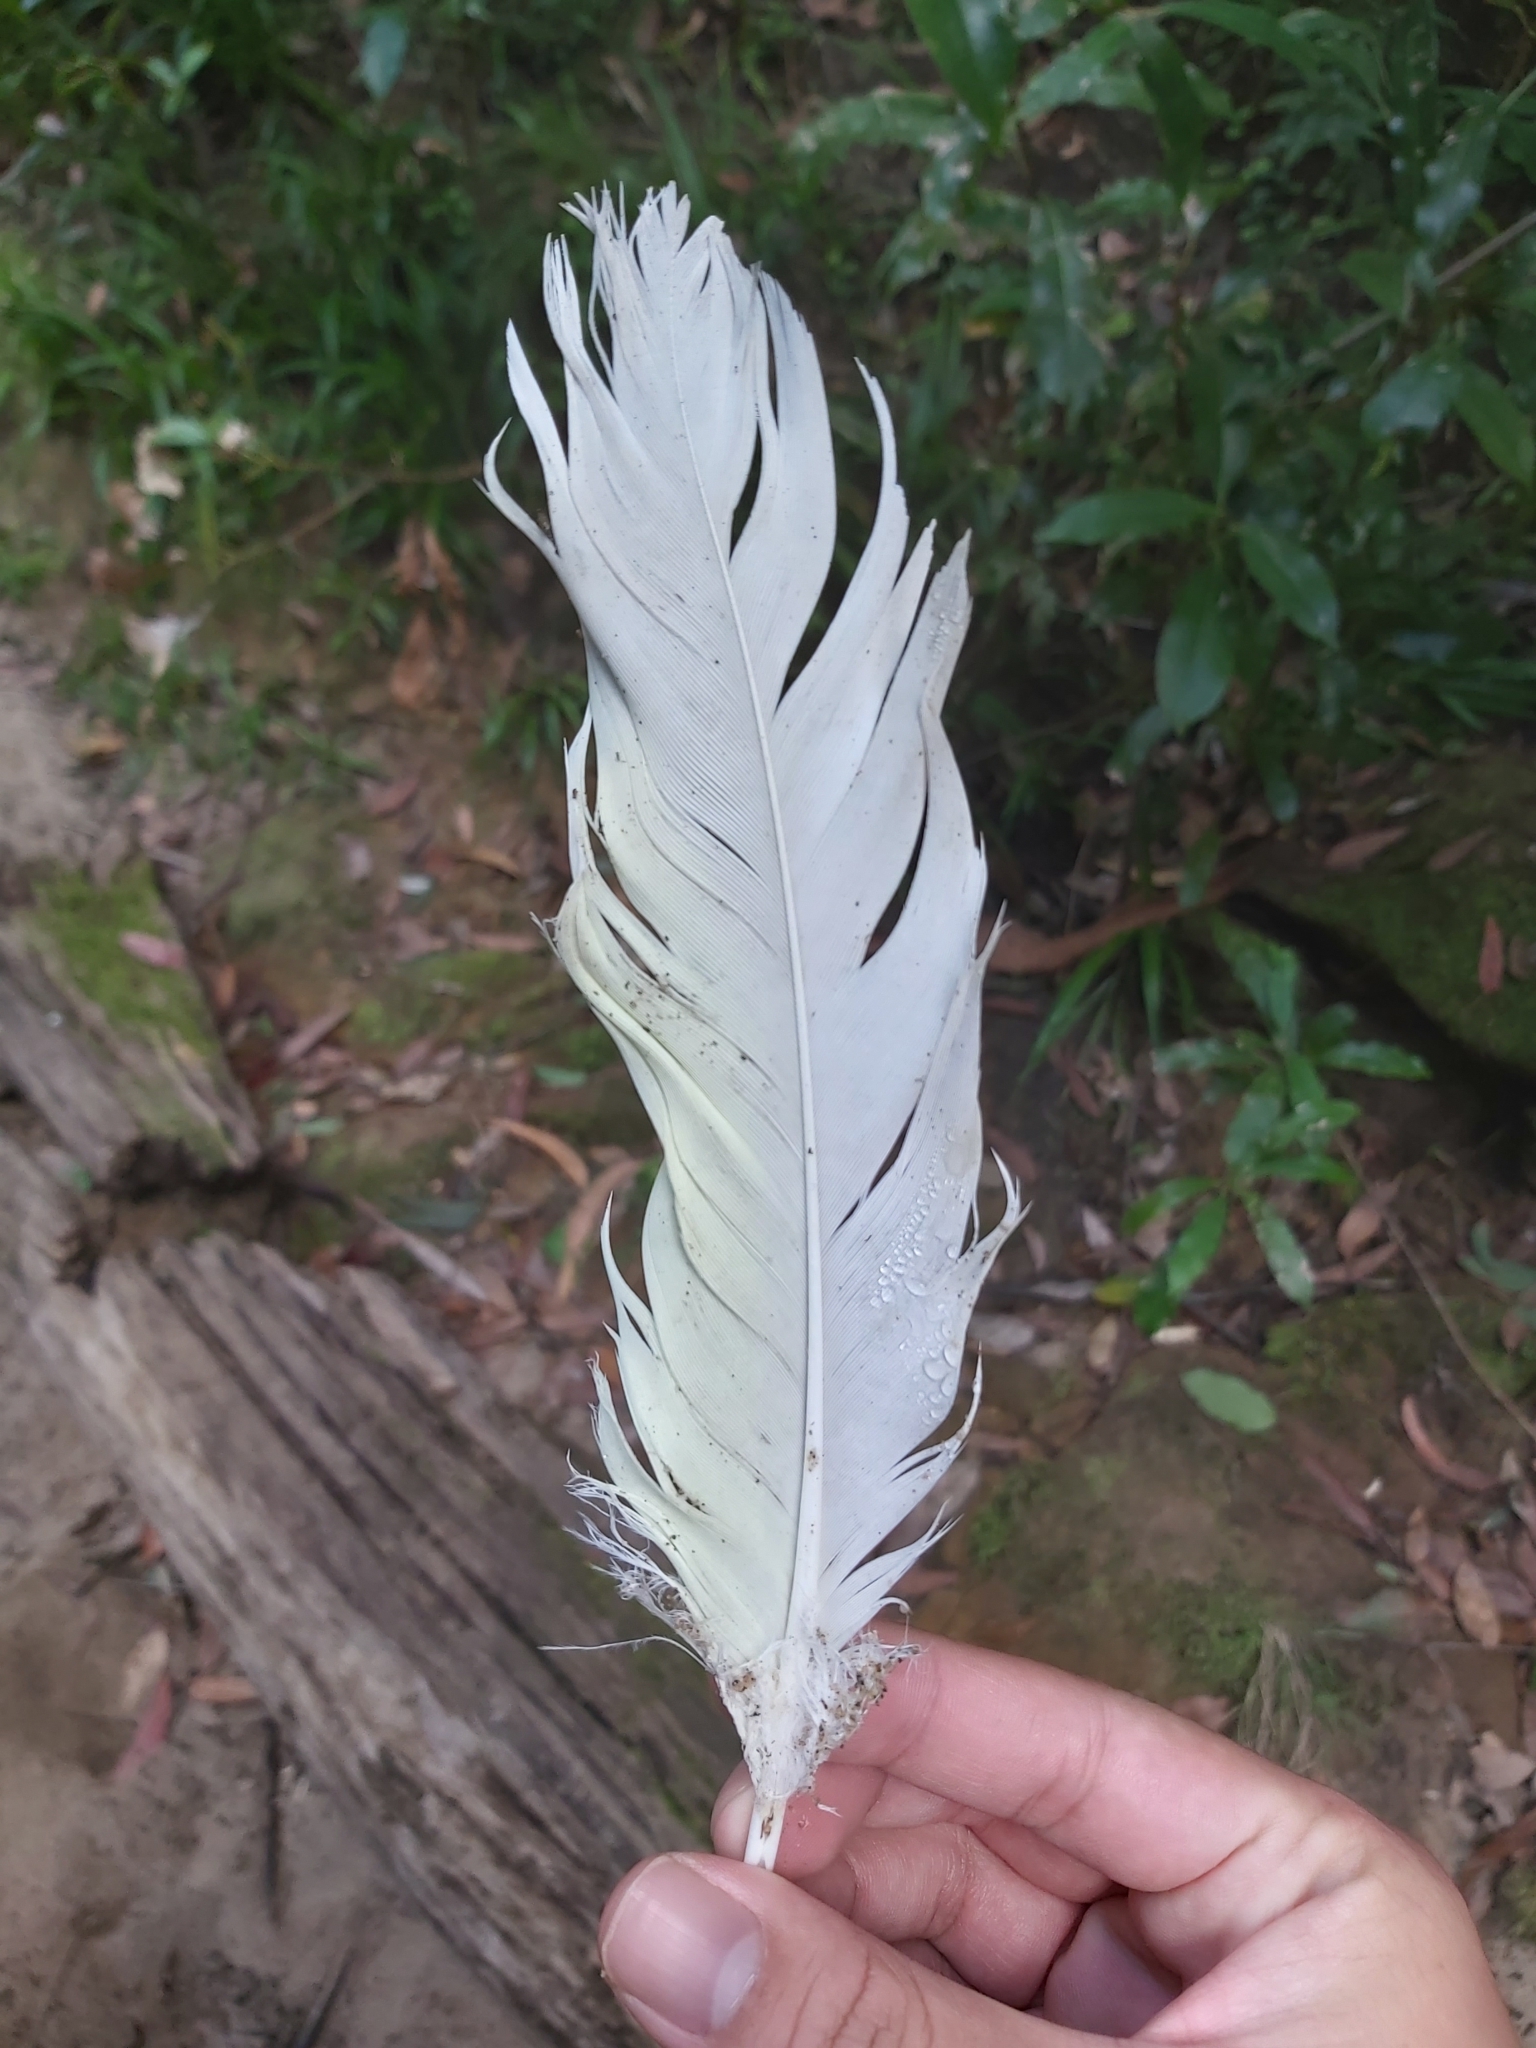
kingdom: Animalia
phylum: Chordata
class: Aves
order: Psittaciformes
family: Psittacidae
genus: Cacatua
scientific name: Cacatua galerita
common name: Sulphur-crested cockatoo
